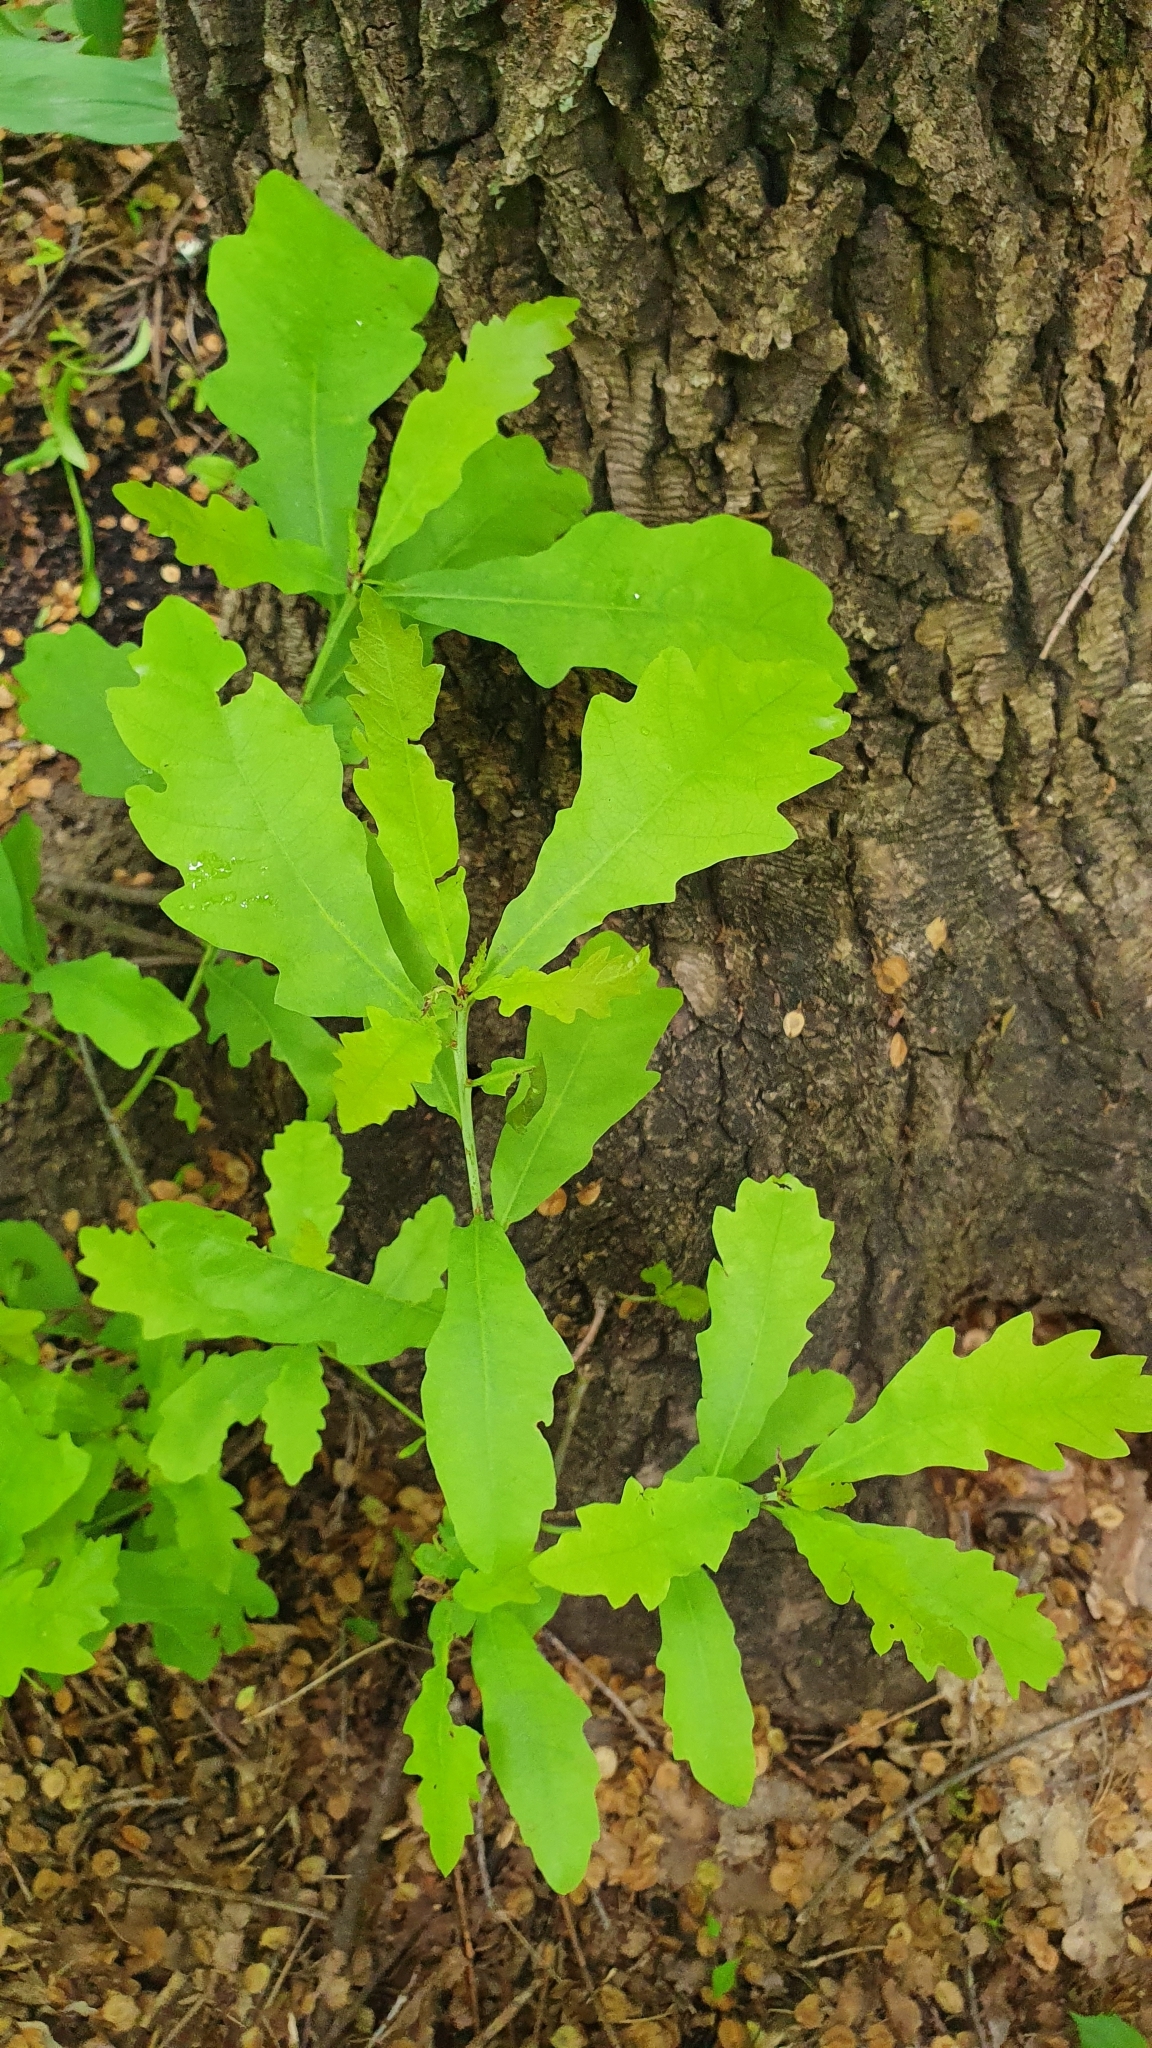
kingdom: Plantae
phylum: Tracheophyta
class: Magnoliopsida
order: Fagales
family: Fagaceae
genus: Quercus
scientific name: Quercus robur
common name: Pedunculate oak
